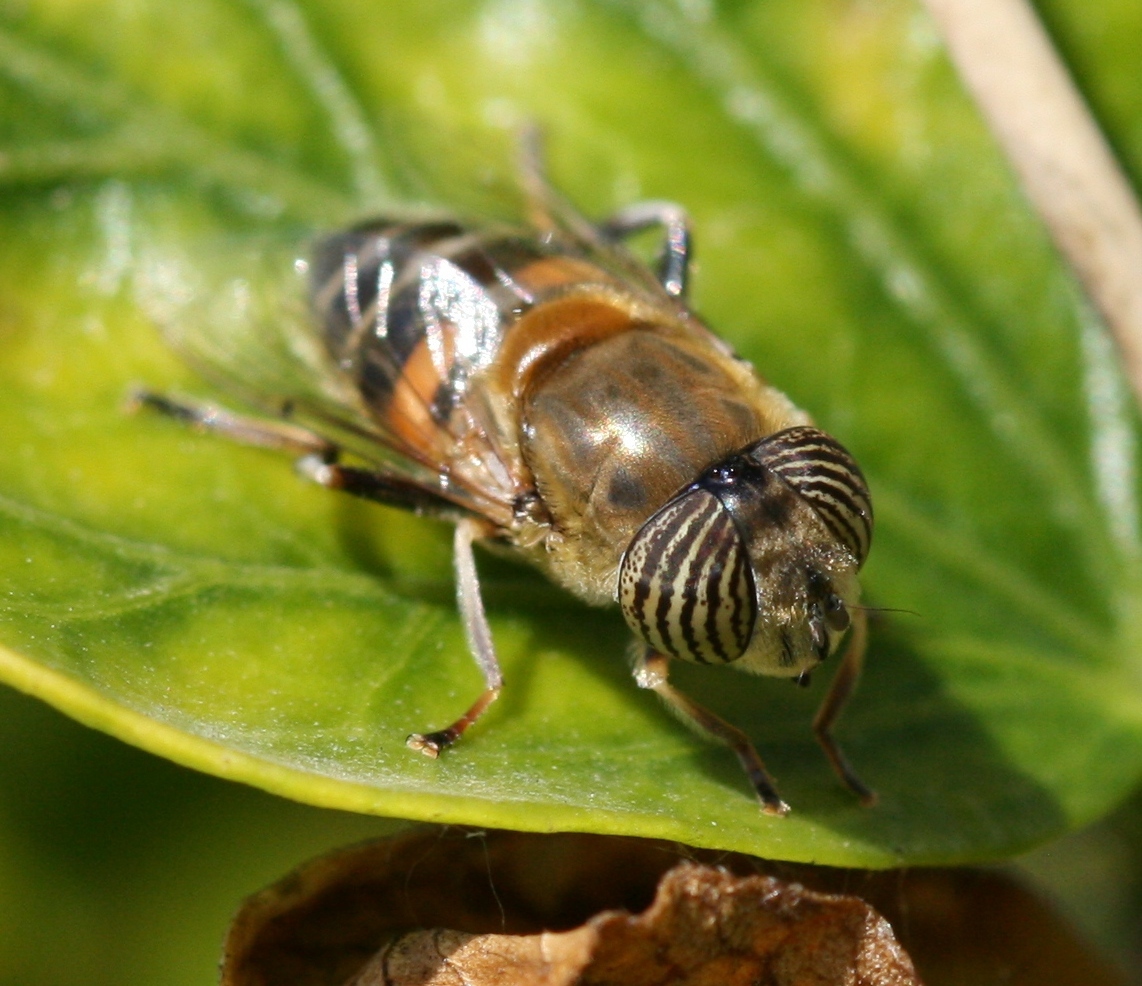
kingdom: Animalia
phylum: Arthropoda
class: Insecta
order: Diptera
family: Syrphidae
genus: Eristalinus
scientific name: Eristalinus taeniops
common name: Syrphid fly
